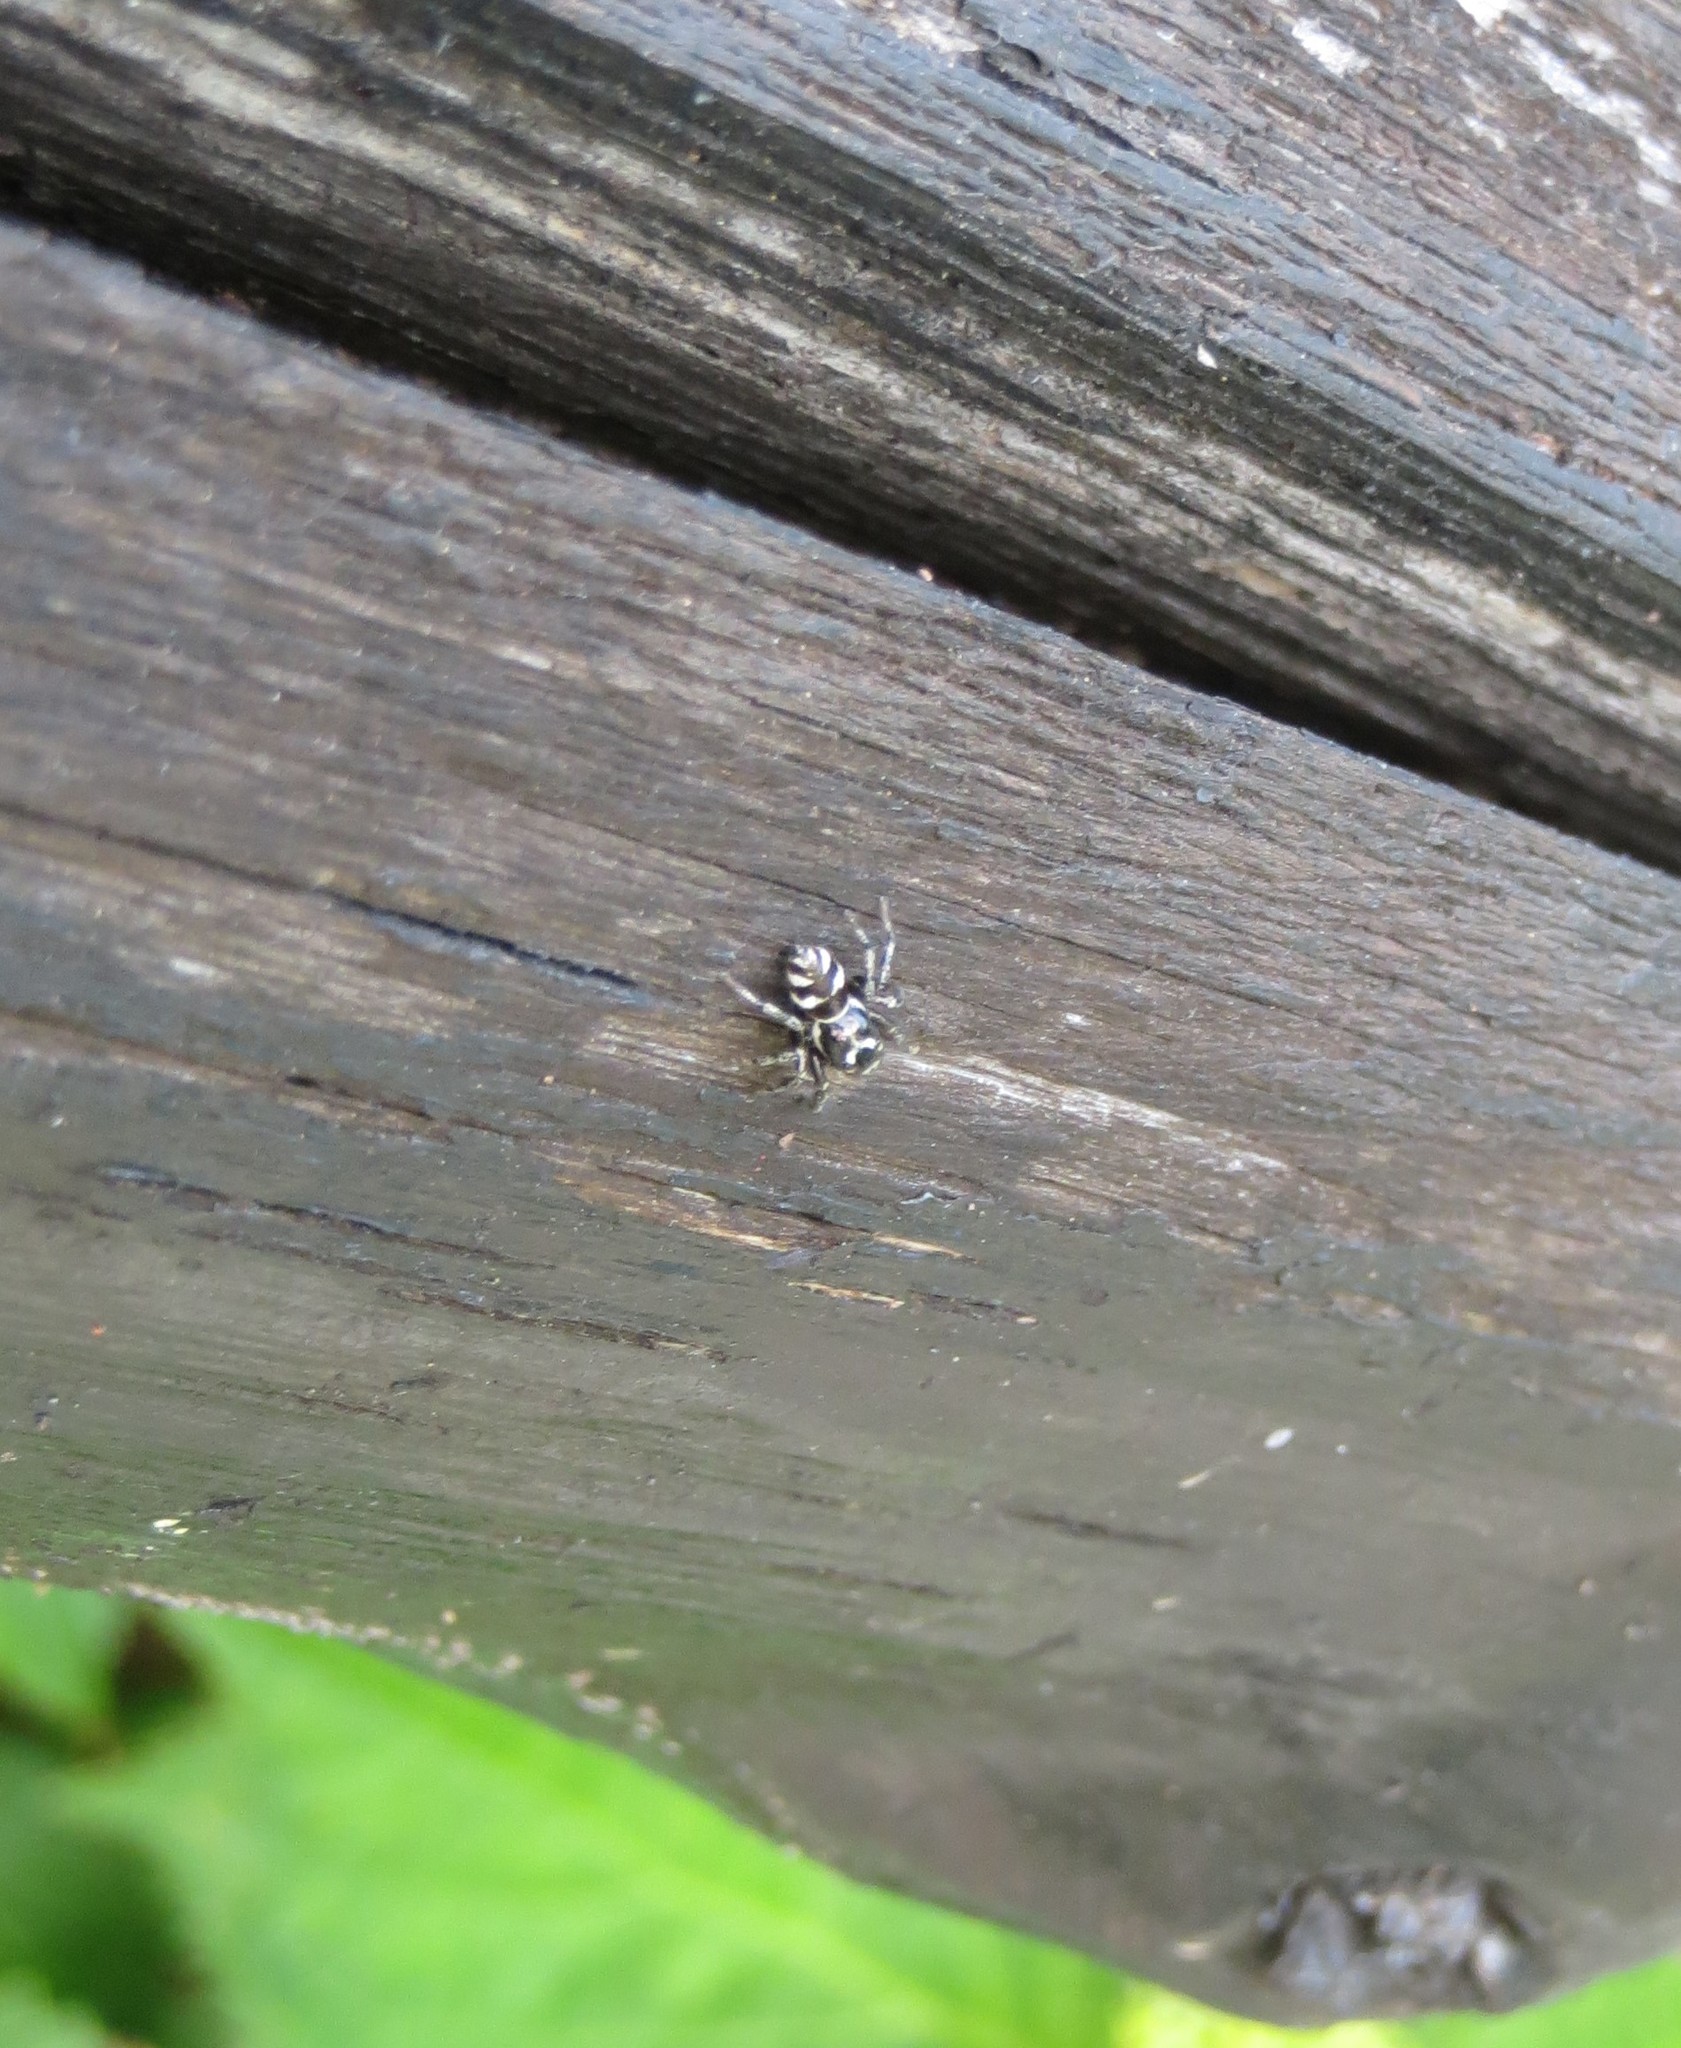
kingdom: Animalia
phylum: Arthropoda
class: Arachnida
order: Araneae
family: Salticidae
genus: Salticus
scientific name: Salticus scenicus
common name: Zebra jumper
